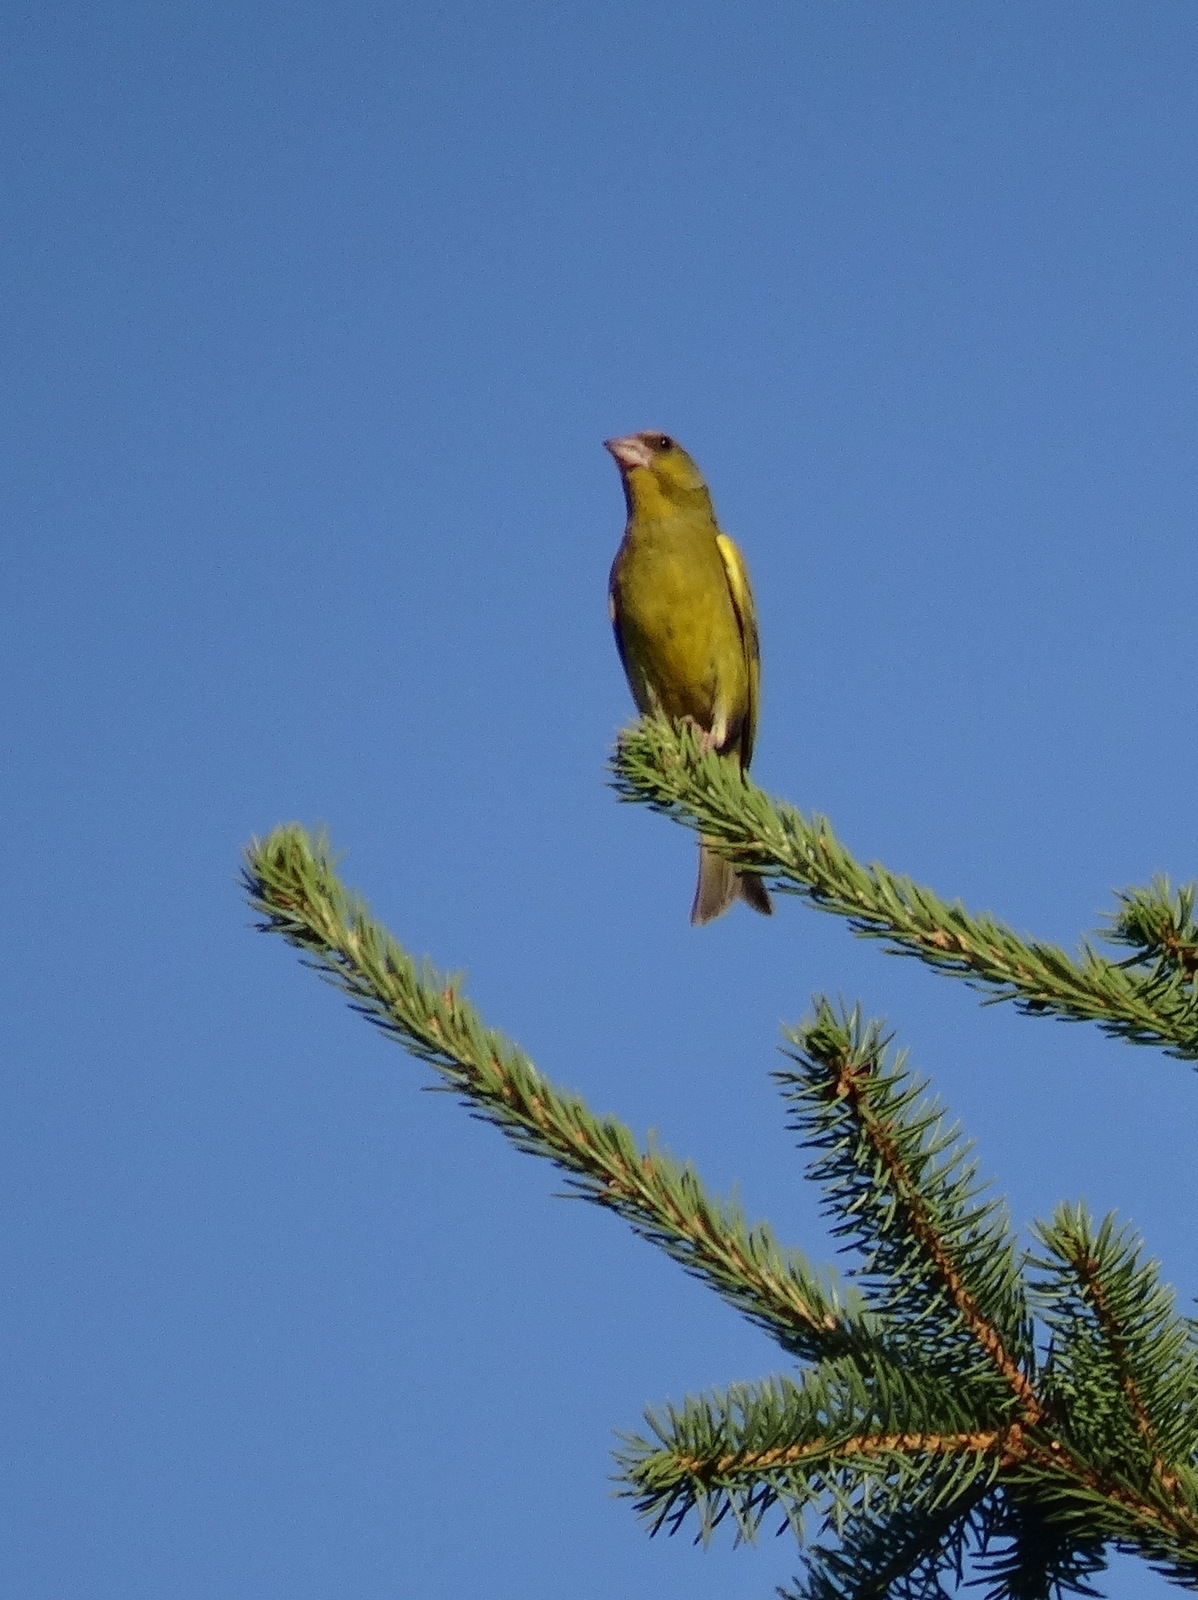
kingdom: Plantae
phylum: Tracheophyta
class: Liliopsida
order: Poales
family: Poaceae
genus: Chloris
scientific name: Chloris chloris
